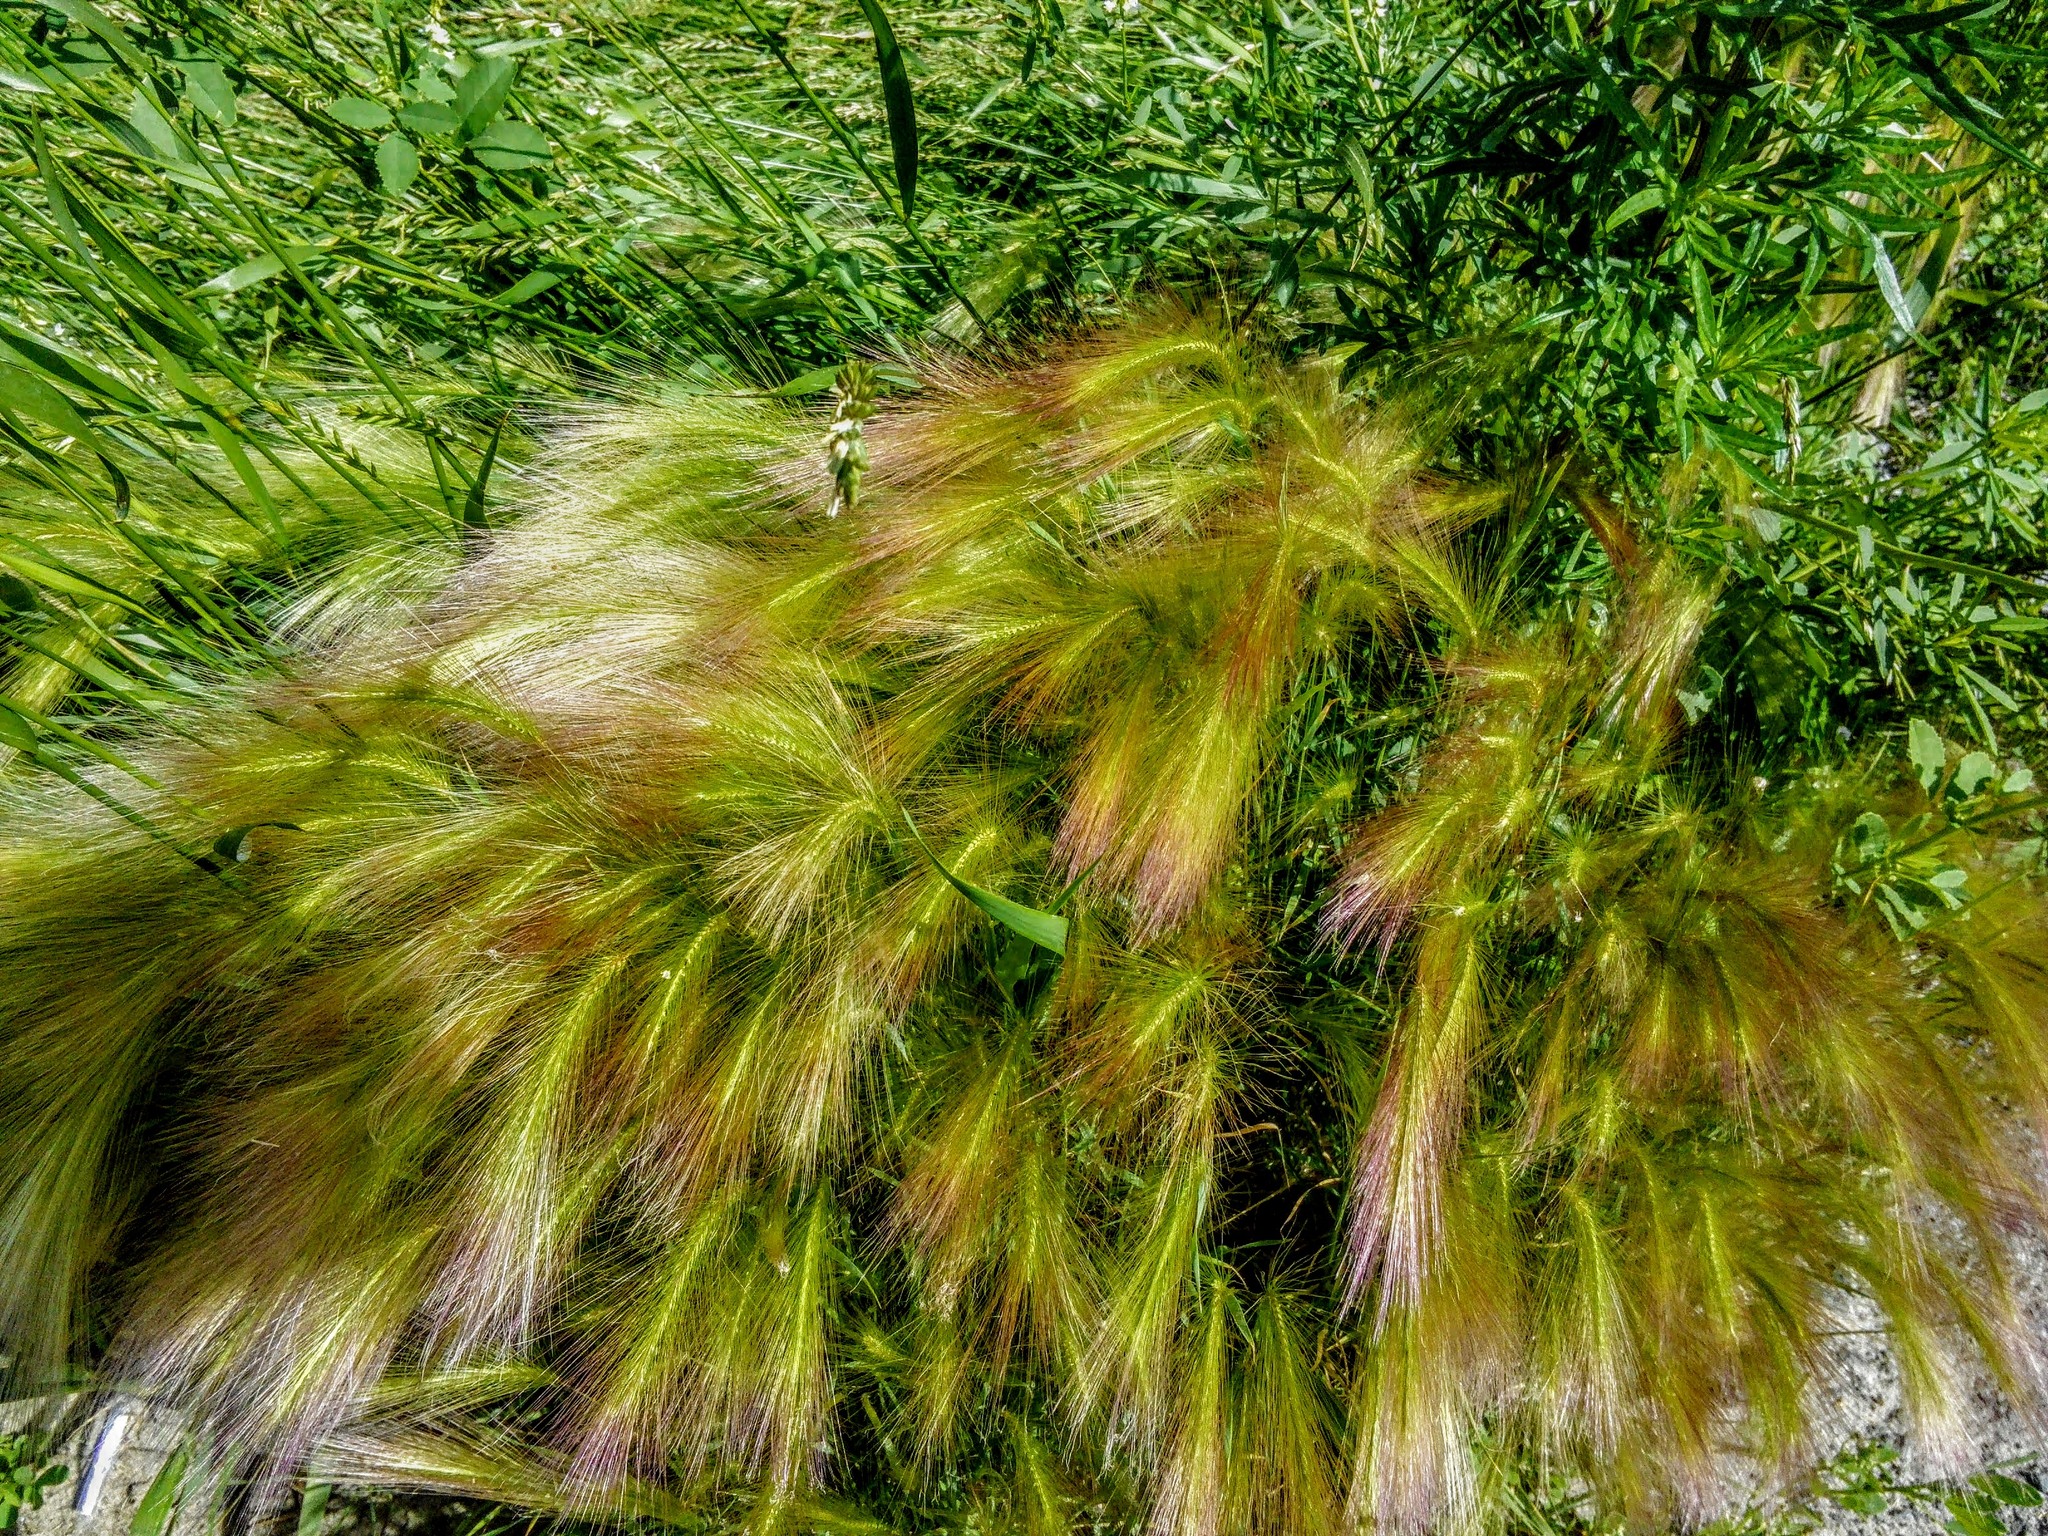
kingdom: Plantae
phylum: Tracheophyta
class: Liliopsida
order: Poales
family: Poaceae
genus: Hordeum
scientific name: Hordeum jubatum
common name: Foxtail barley
